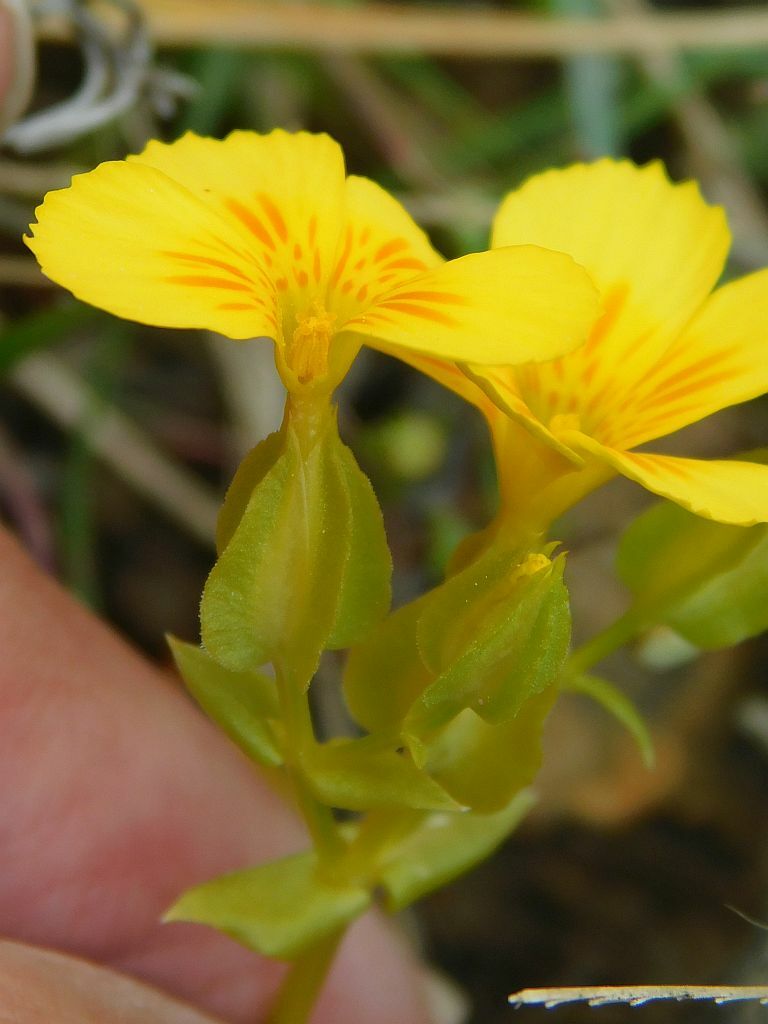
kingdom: Plantae
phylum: Tracheophyta
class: Magnoliopsida
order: Gentianales
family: Gentianaceae
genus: Sebaea
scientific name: Sebaea solaris
